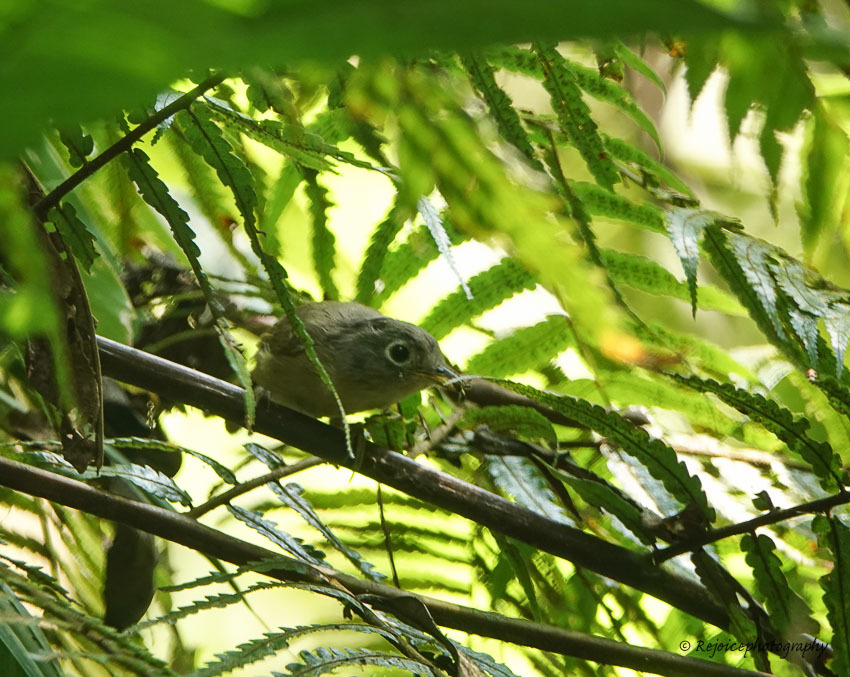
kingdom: Animalia
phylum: Chordata
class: Aves
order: Passeriformes
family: Pellorneidae
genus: Alcippe
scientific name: Alcippe nipalensis
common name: Nepal fulvetta
